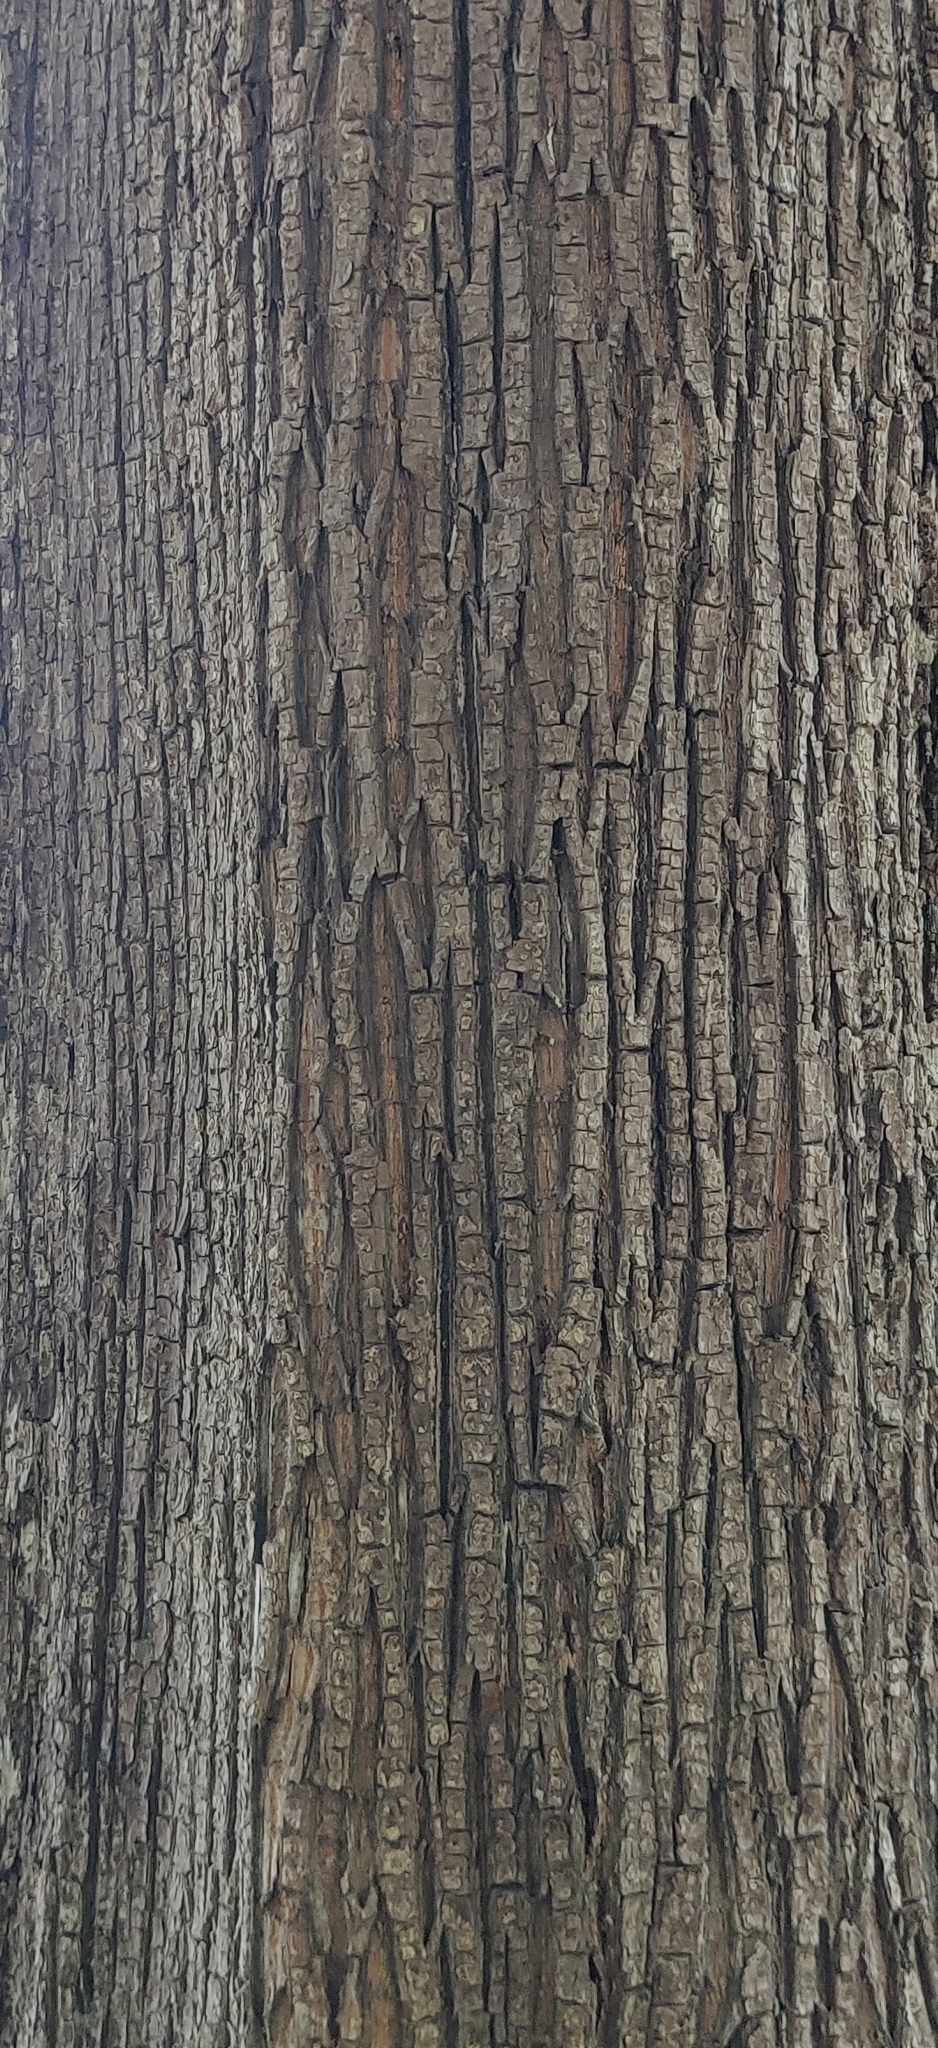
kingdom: Plantae
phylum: Tracheophyta
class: Magnoliopsida
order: Ericales
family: Sapotaceae
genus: Manilkara
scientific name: Manilkara littoralis
